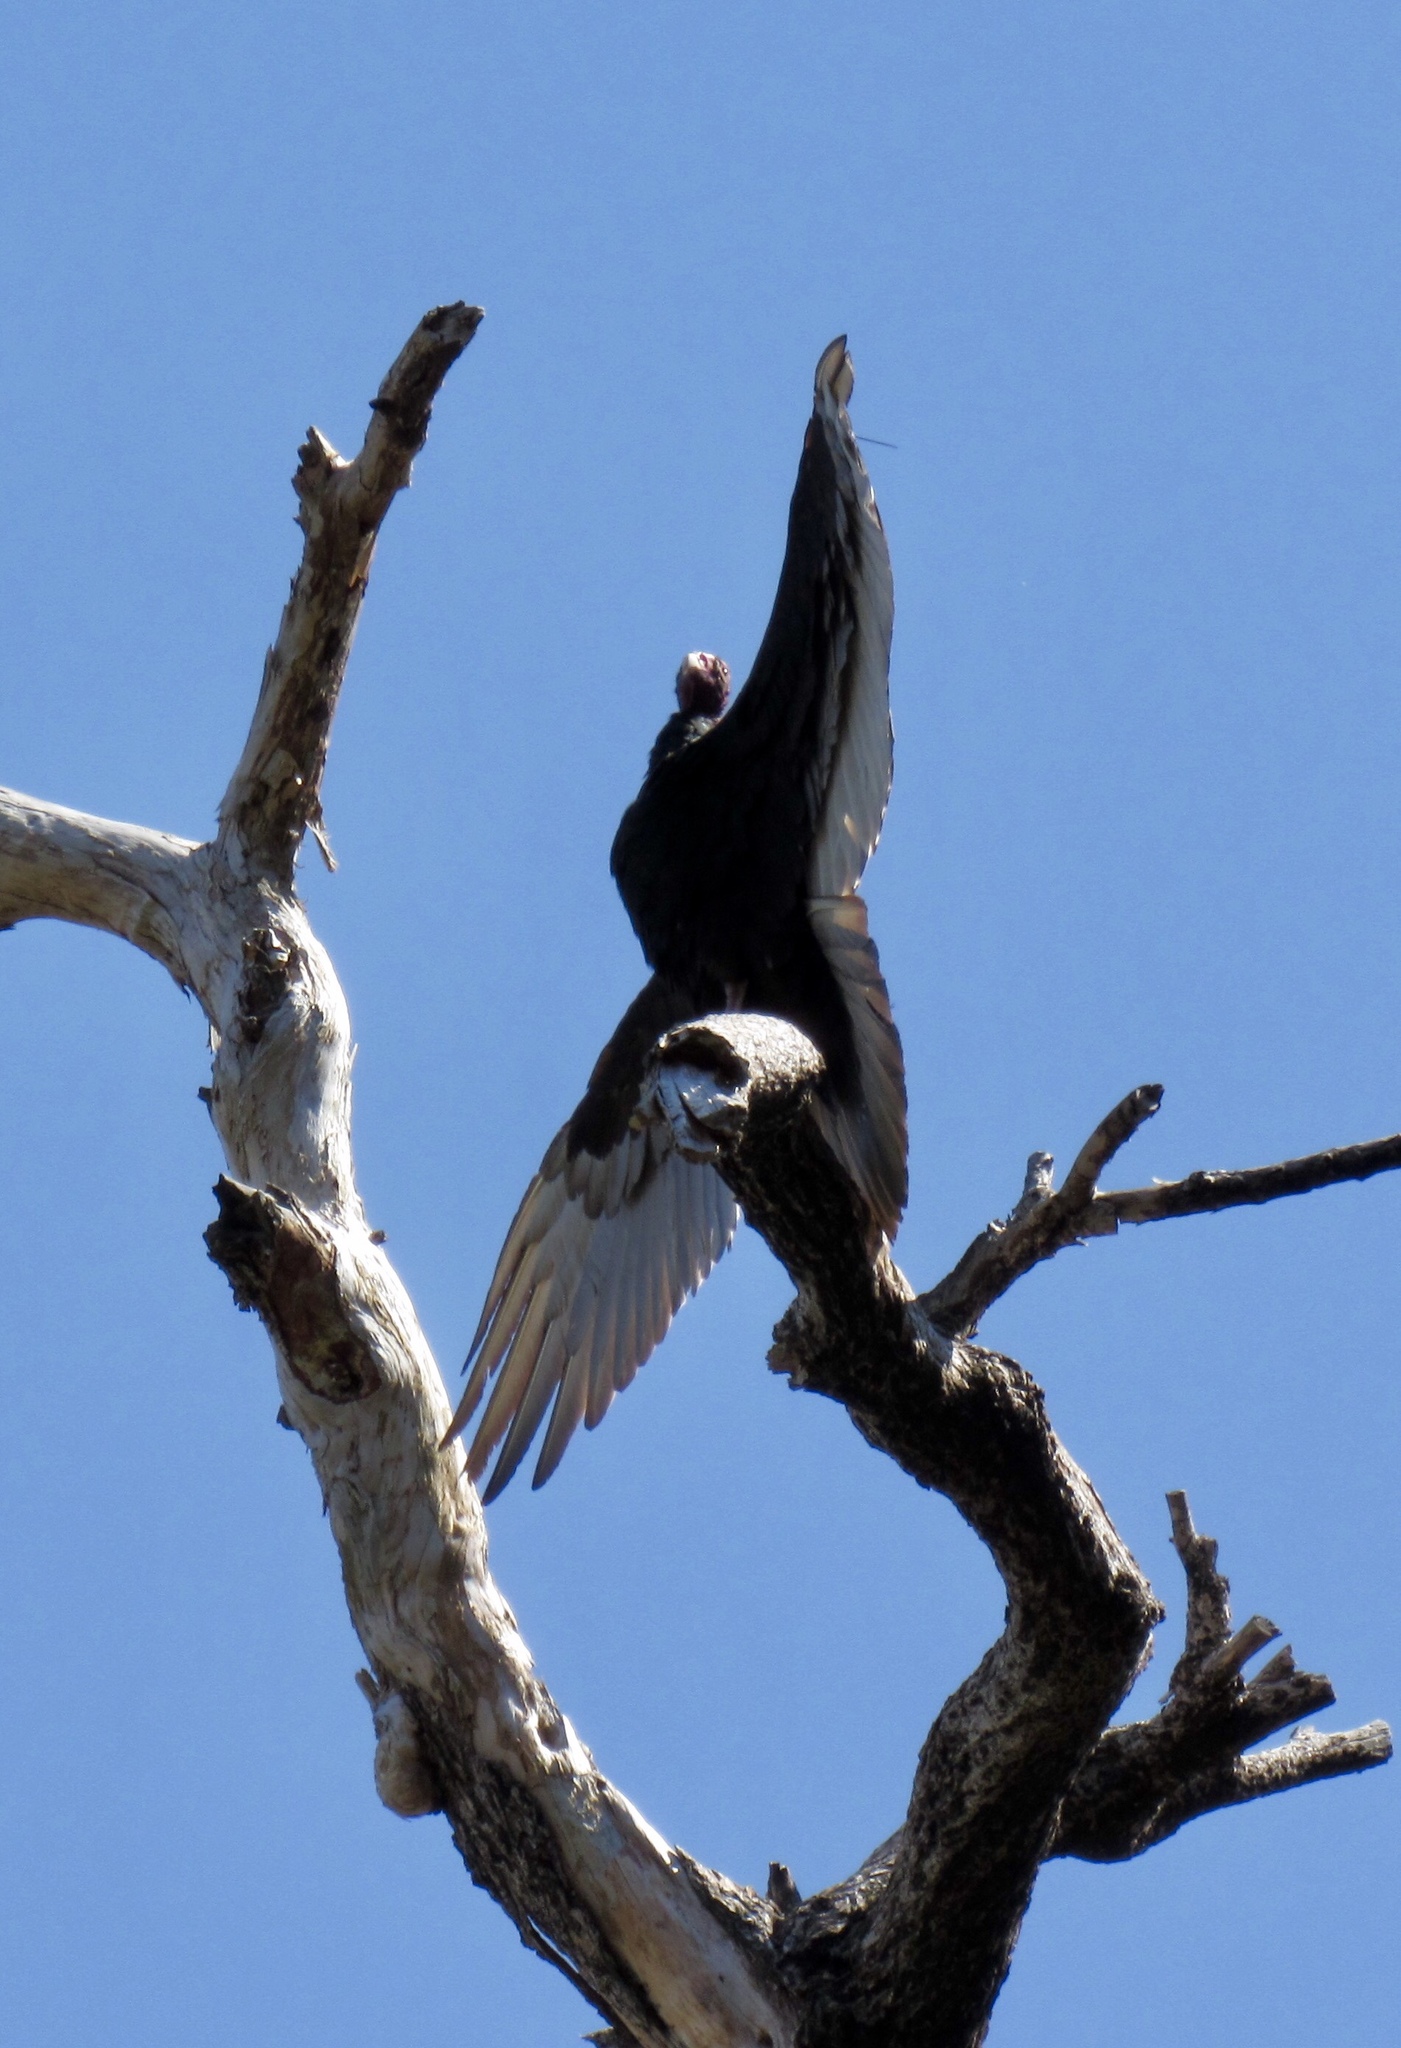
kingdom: Animalia
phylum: Chordata
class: Aves
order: Accipitriformes
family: Cathartidae
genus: Cathartes
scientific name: Cathartes aura
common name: Turkey vulture
